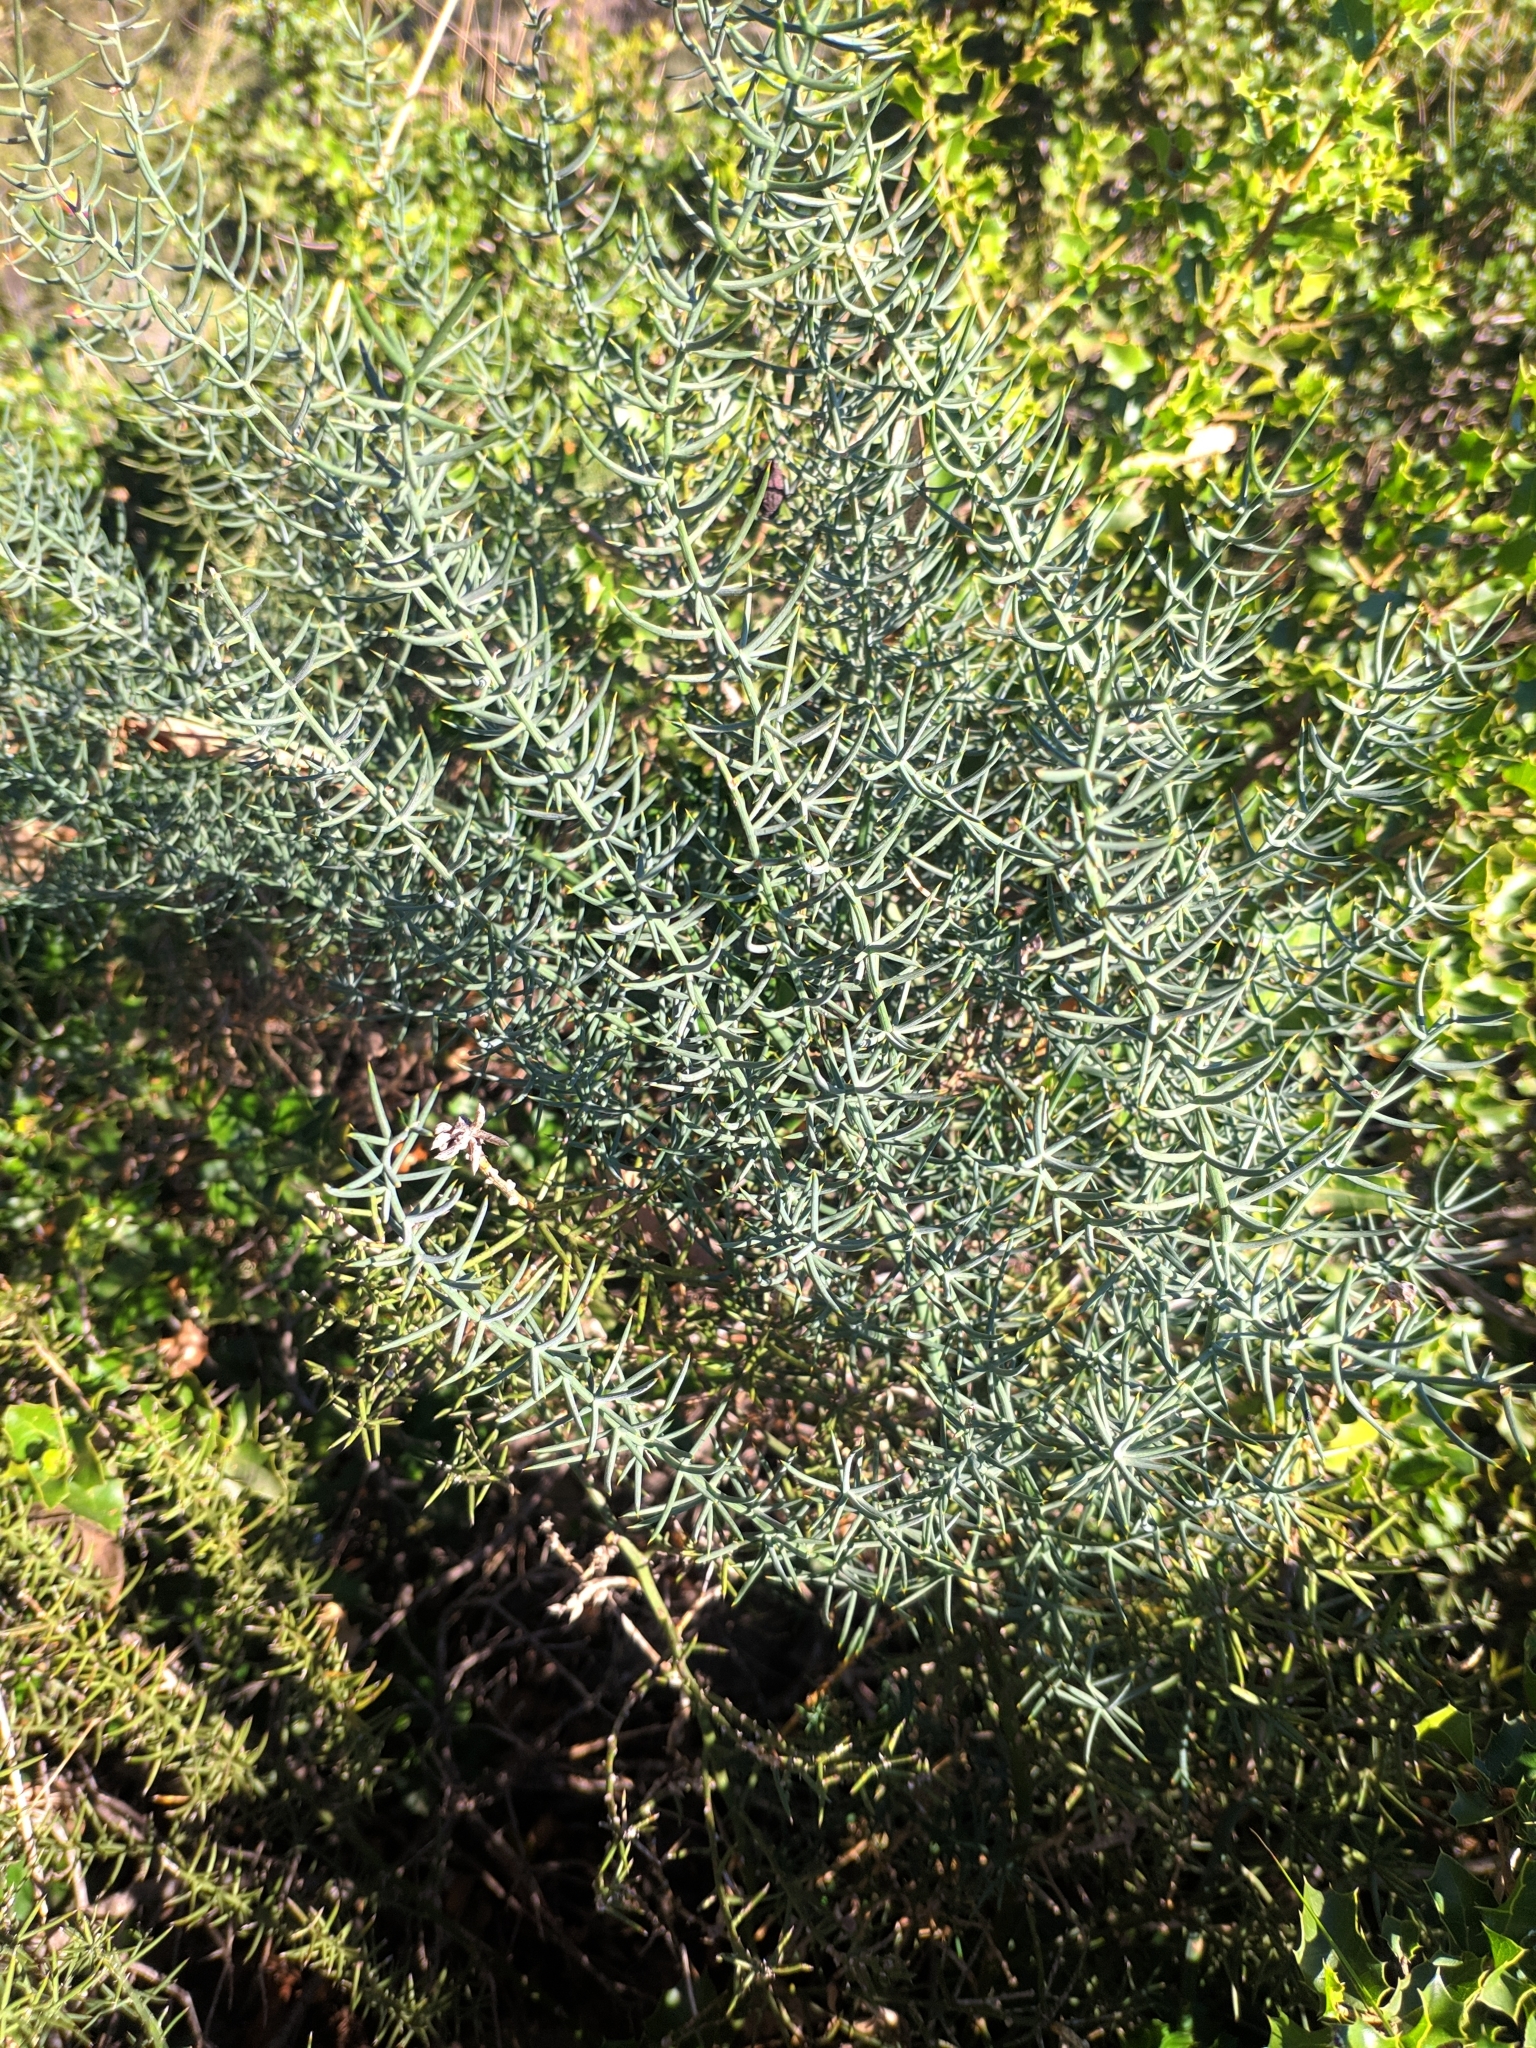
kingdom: Plantae
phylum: Tracheophyta
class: Liliopsida
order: Asparagales
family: Asparagaceae
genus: Asparagus
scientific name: Asparagus horridus
